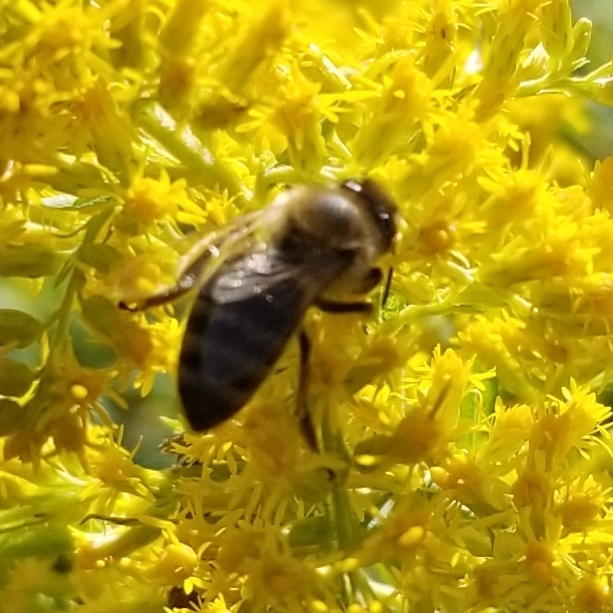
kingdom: Animalia
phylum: Arthropoda
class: Insecta
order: Hymenoptera
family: Apidae
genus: Apis
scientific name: Apis mellifera
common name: Honey bee
